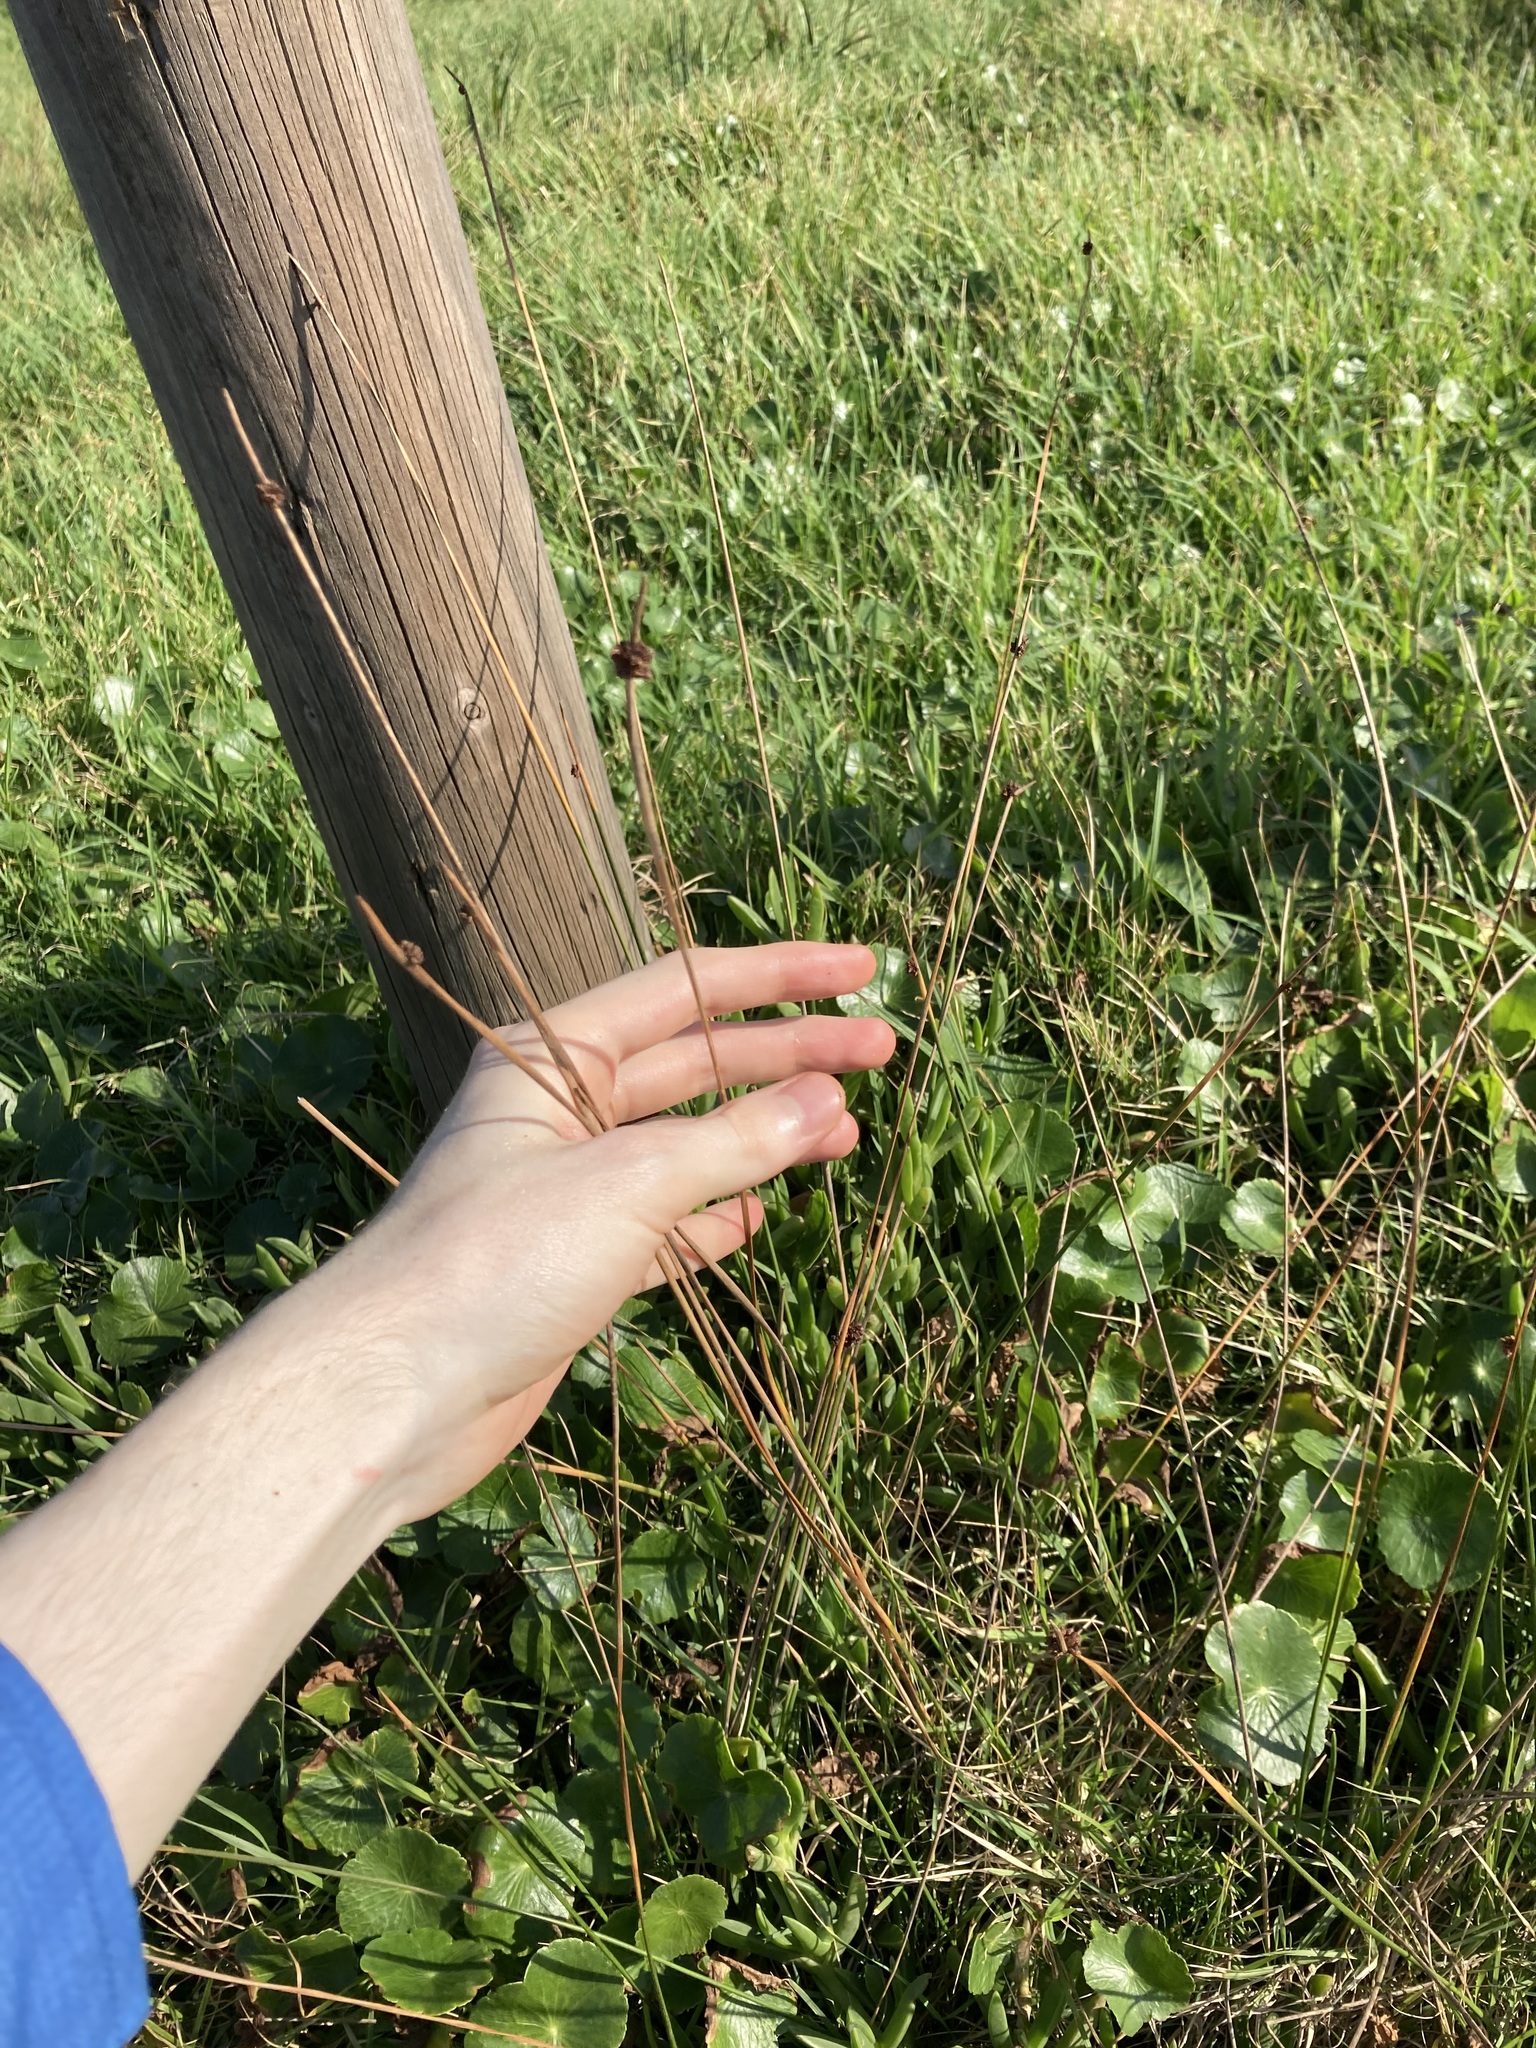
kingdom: Plantae
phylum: Tracheophyta
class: Liliopsida
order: Poales
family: Cyperaceae
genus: Ficinia
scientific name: Ficinia nodosa
